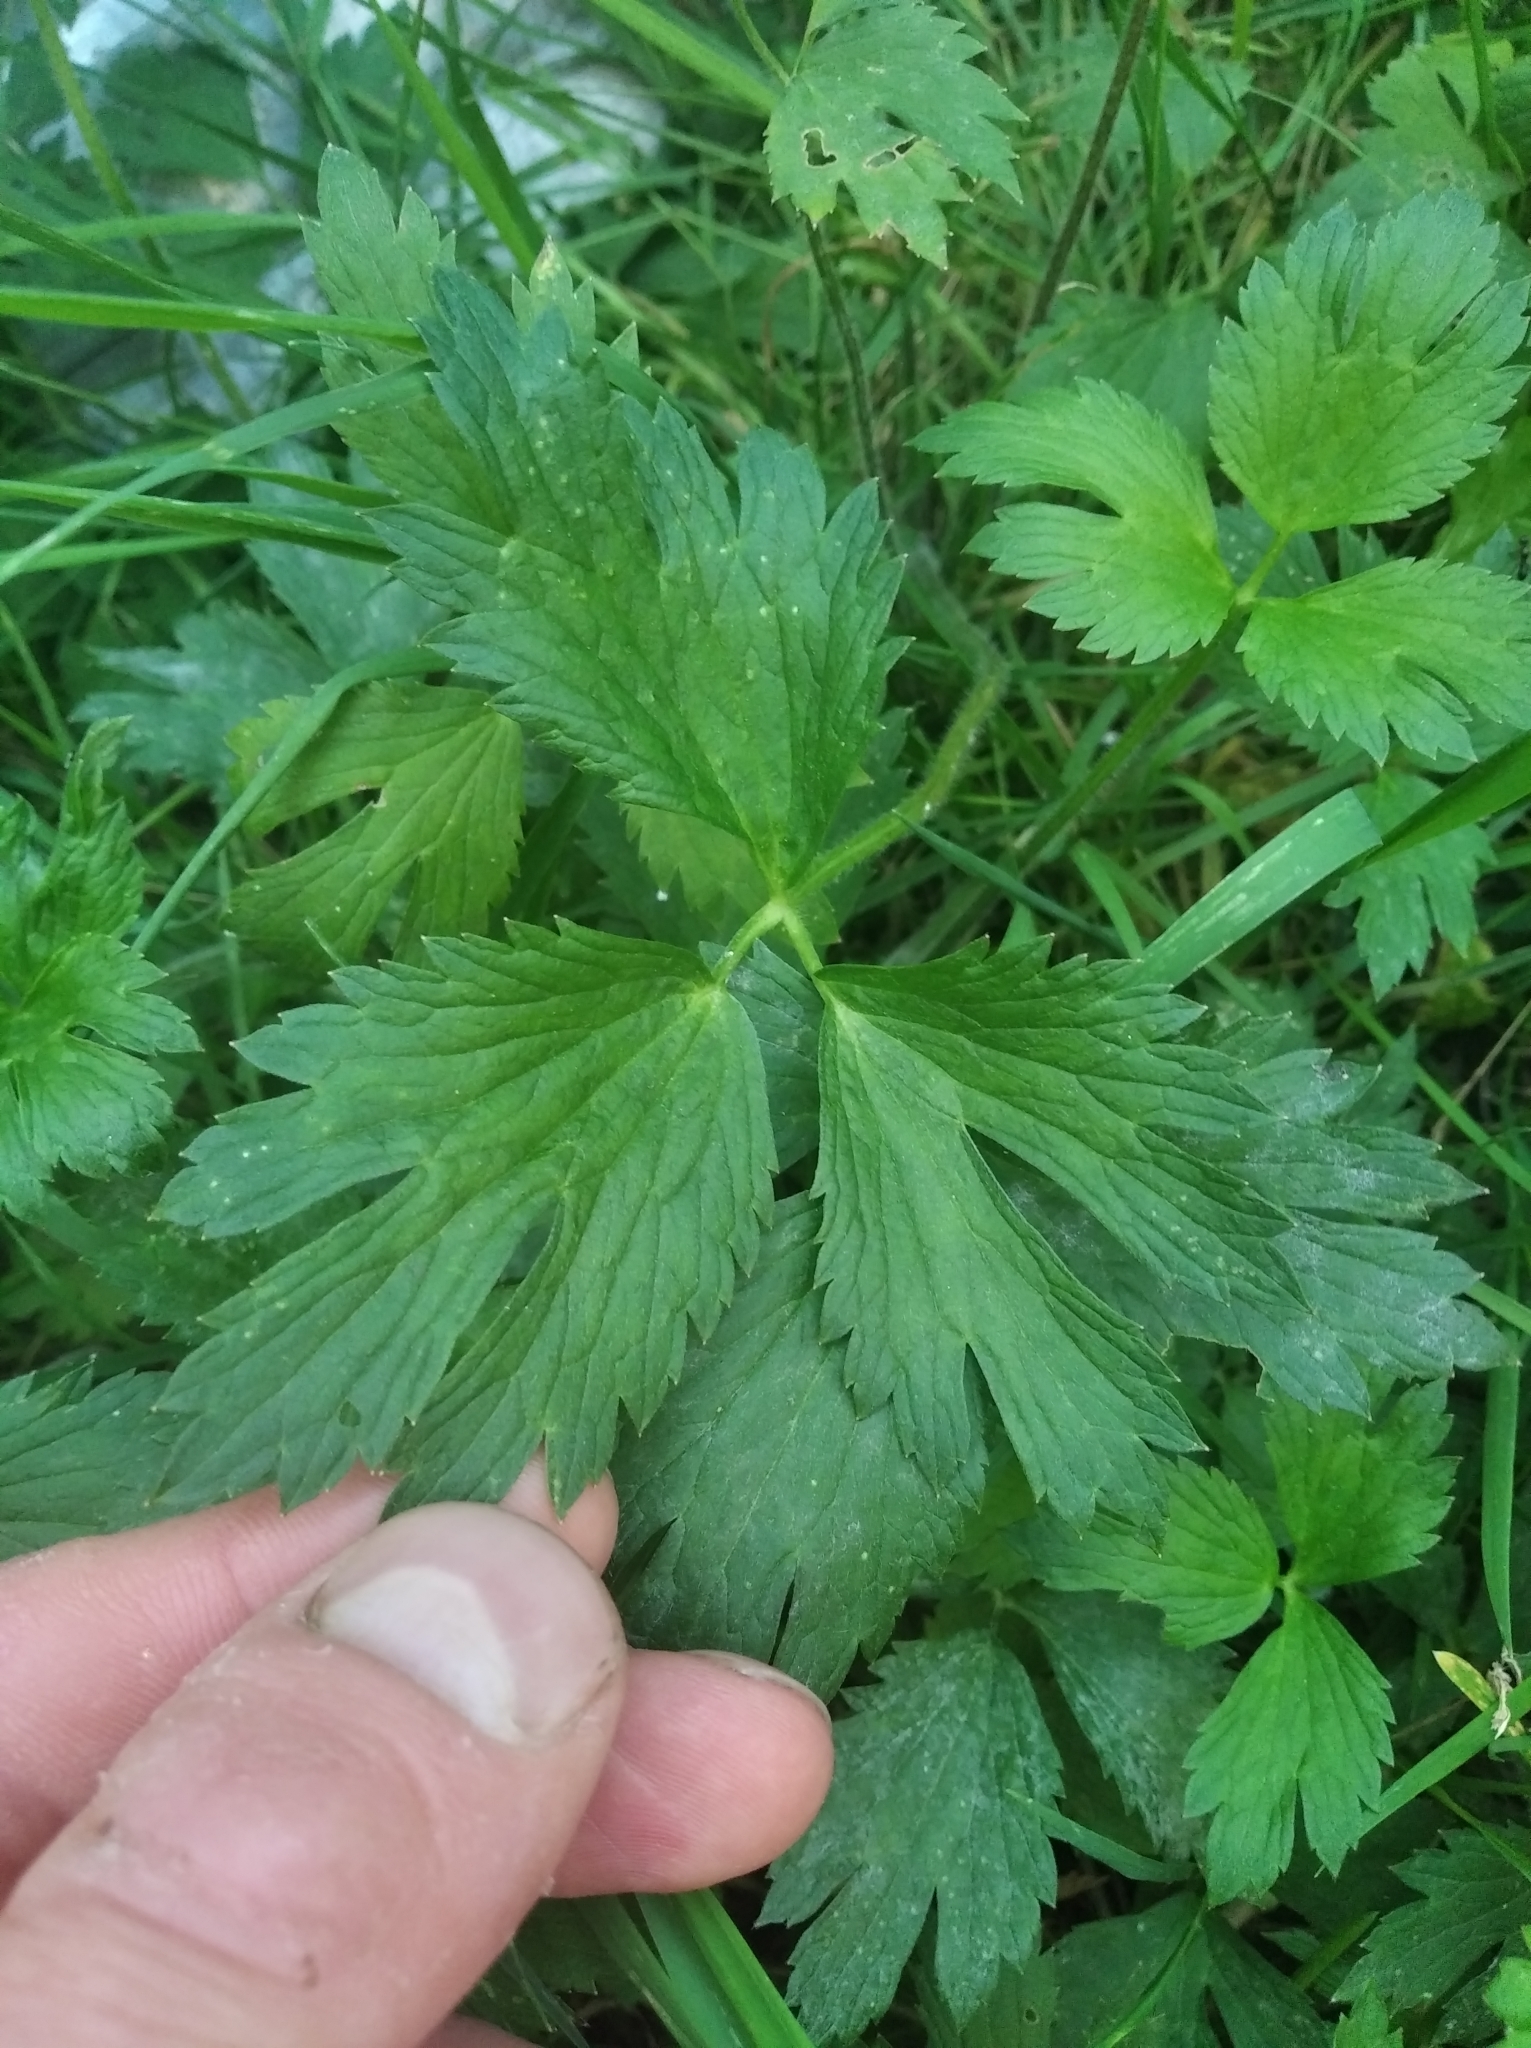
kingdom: Plantae
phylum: Tracheophyta
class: Magnoliopsida
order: Ranunculales
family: Ranunculaceae
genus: Ranunculus
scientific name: Ranunculus repens
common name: Creeping buttercup
